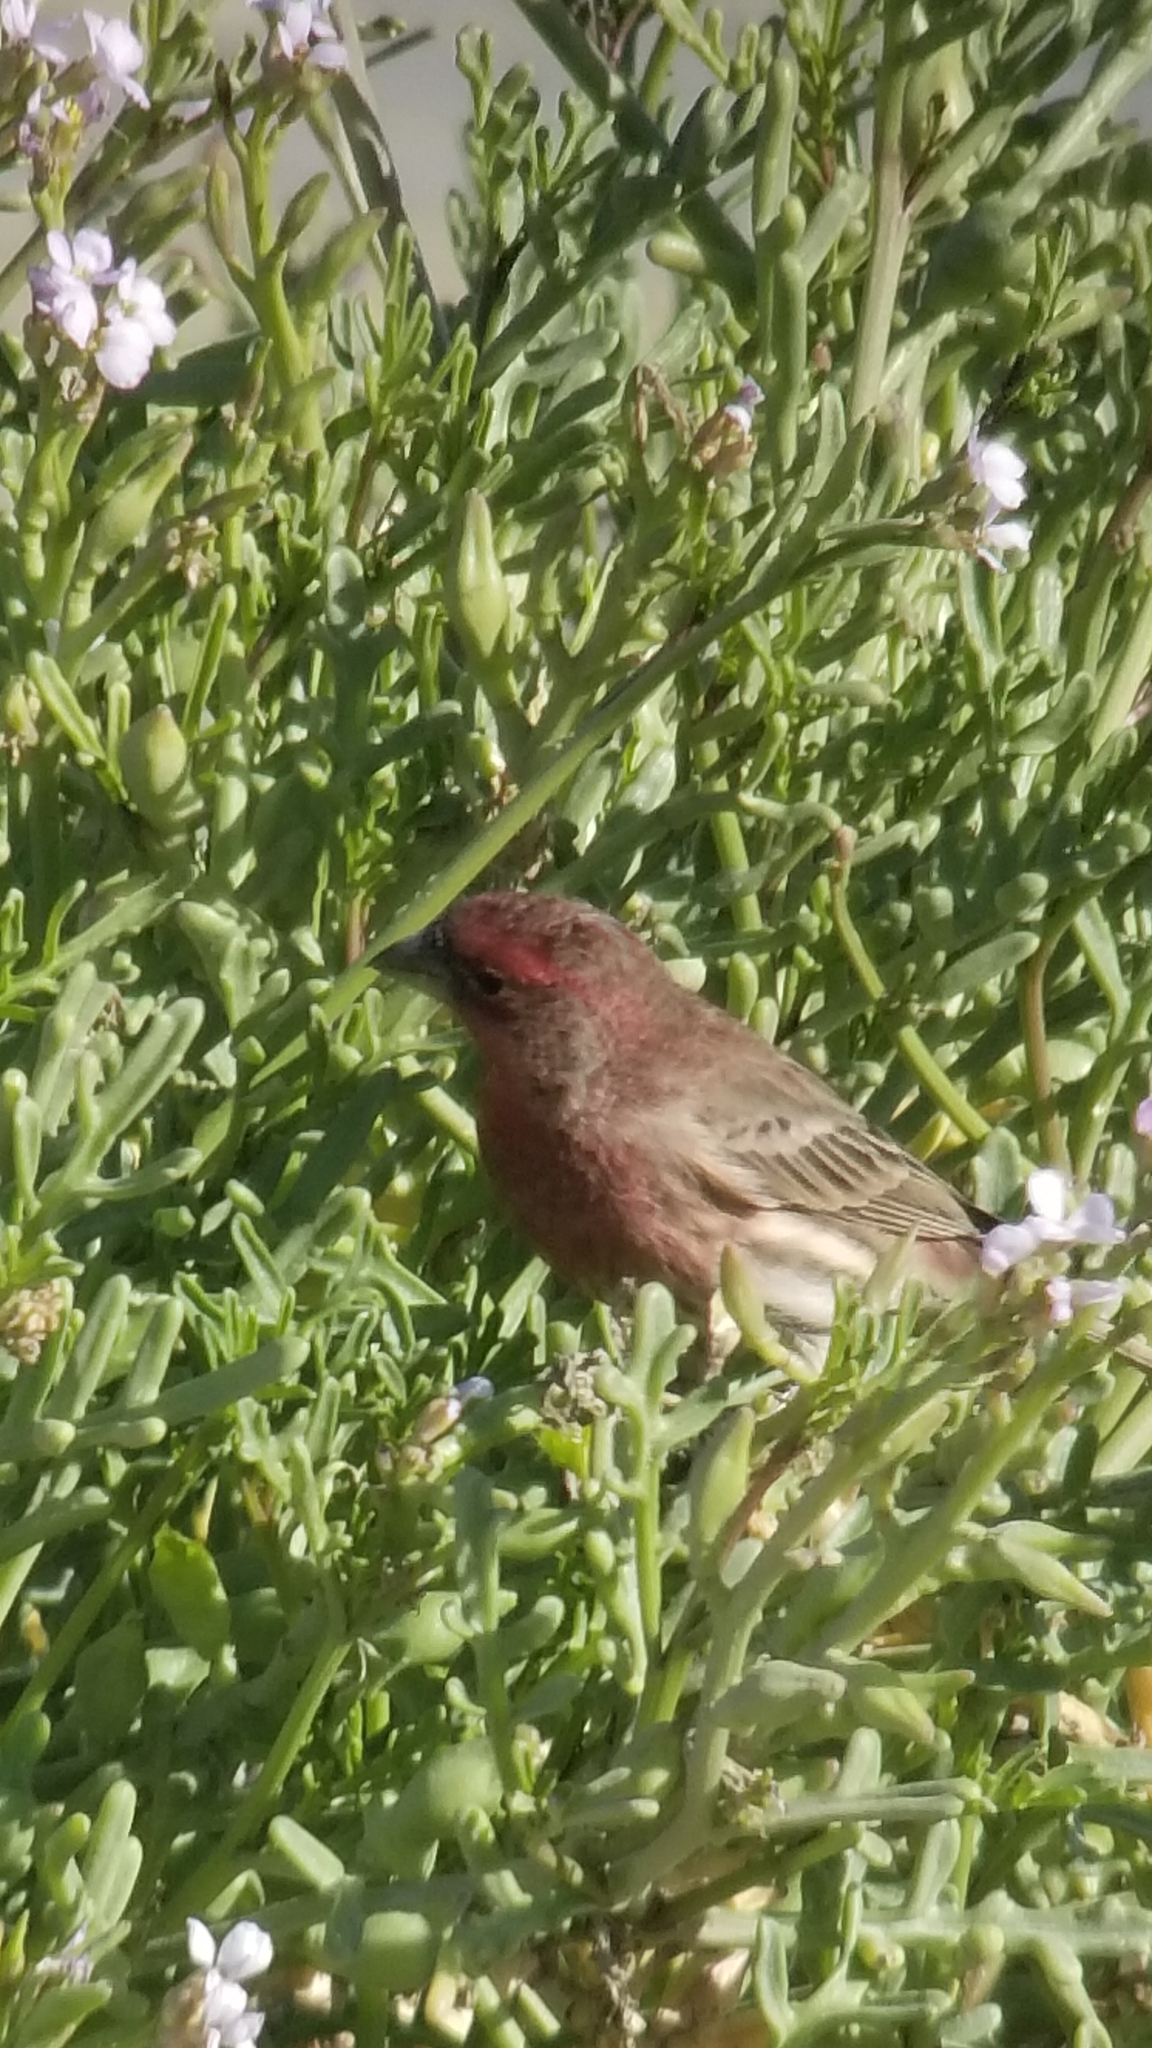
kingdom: Animalia
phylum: Chordata
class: Aves
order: Passeriformes
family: Fringillidae
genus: Haemorhous
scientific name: Haemorhous mexicanus
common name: House finch
